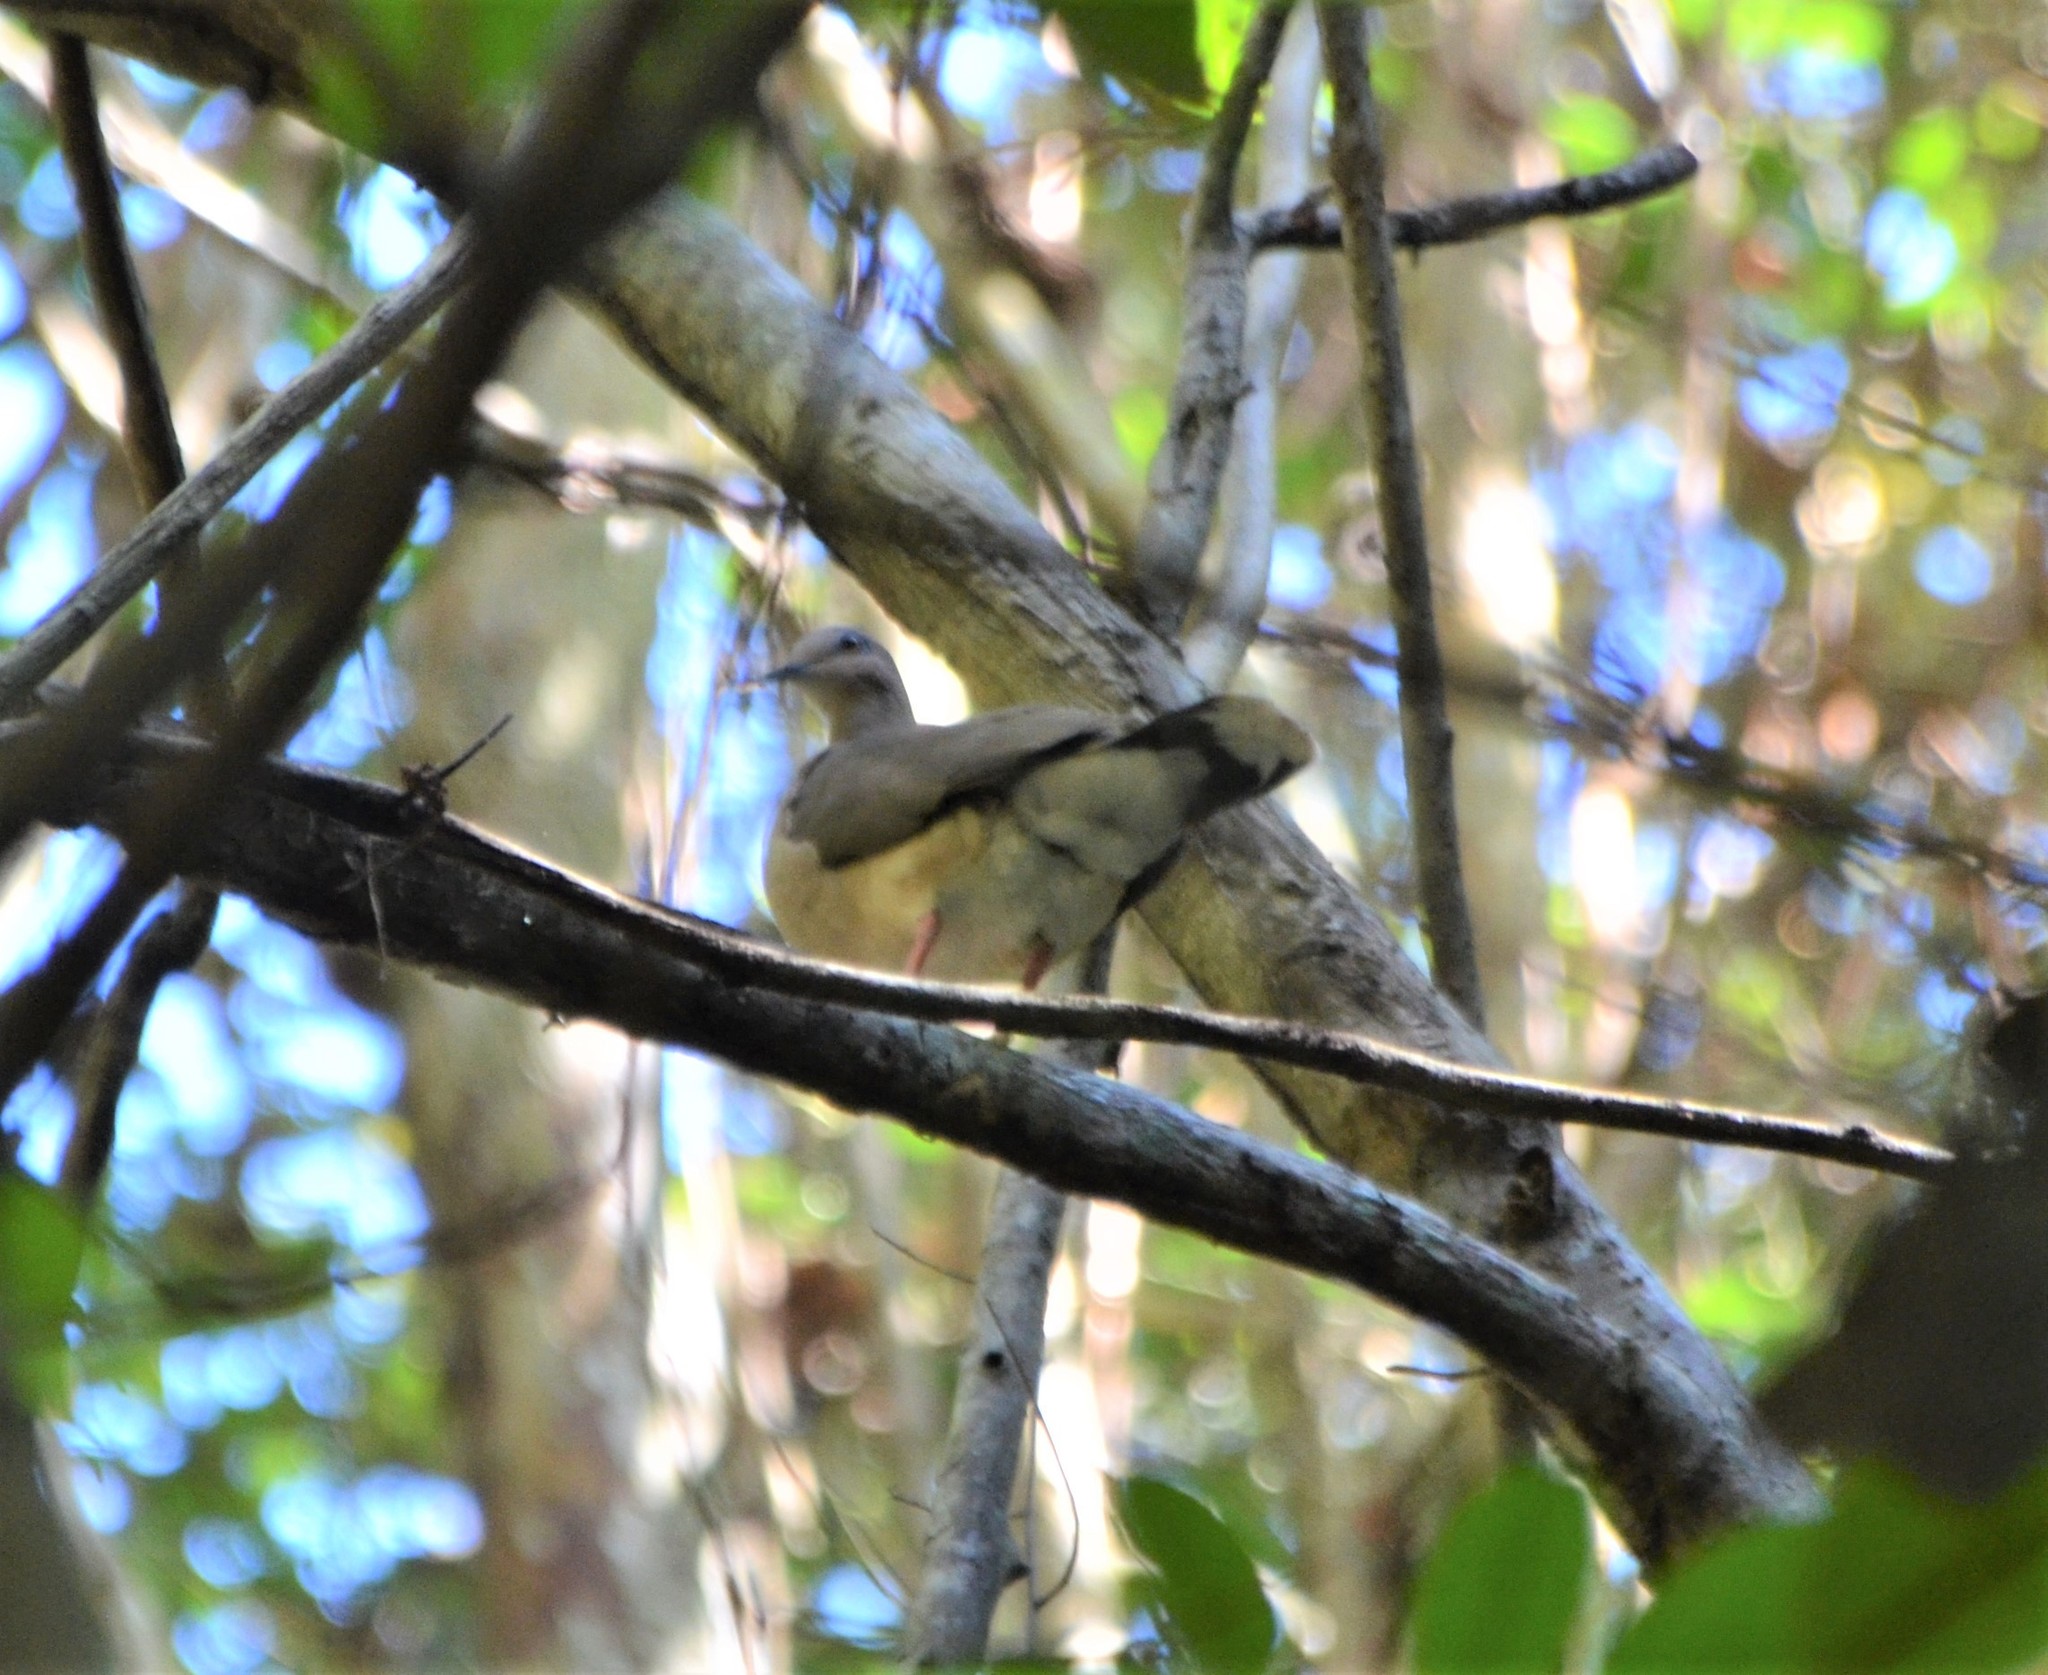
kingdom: Animalia
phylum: Chordata
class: Aves
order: Columbiformes
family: Columbidae
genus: Leptotila
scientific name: Leptotila verreauxi
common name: White-tipped dove
